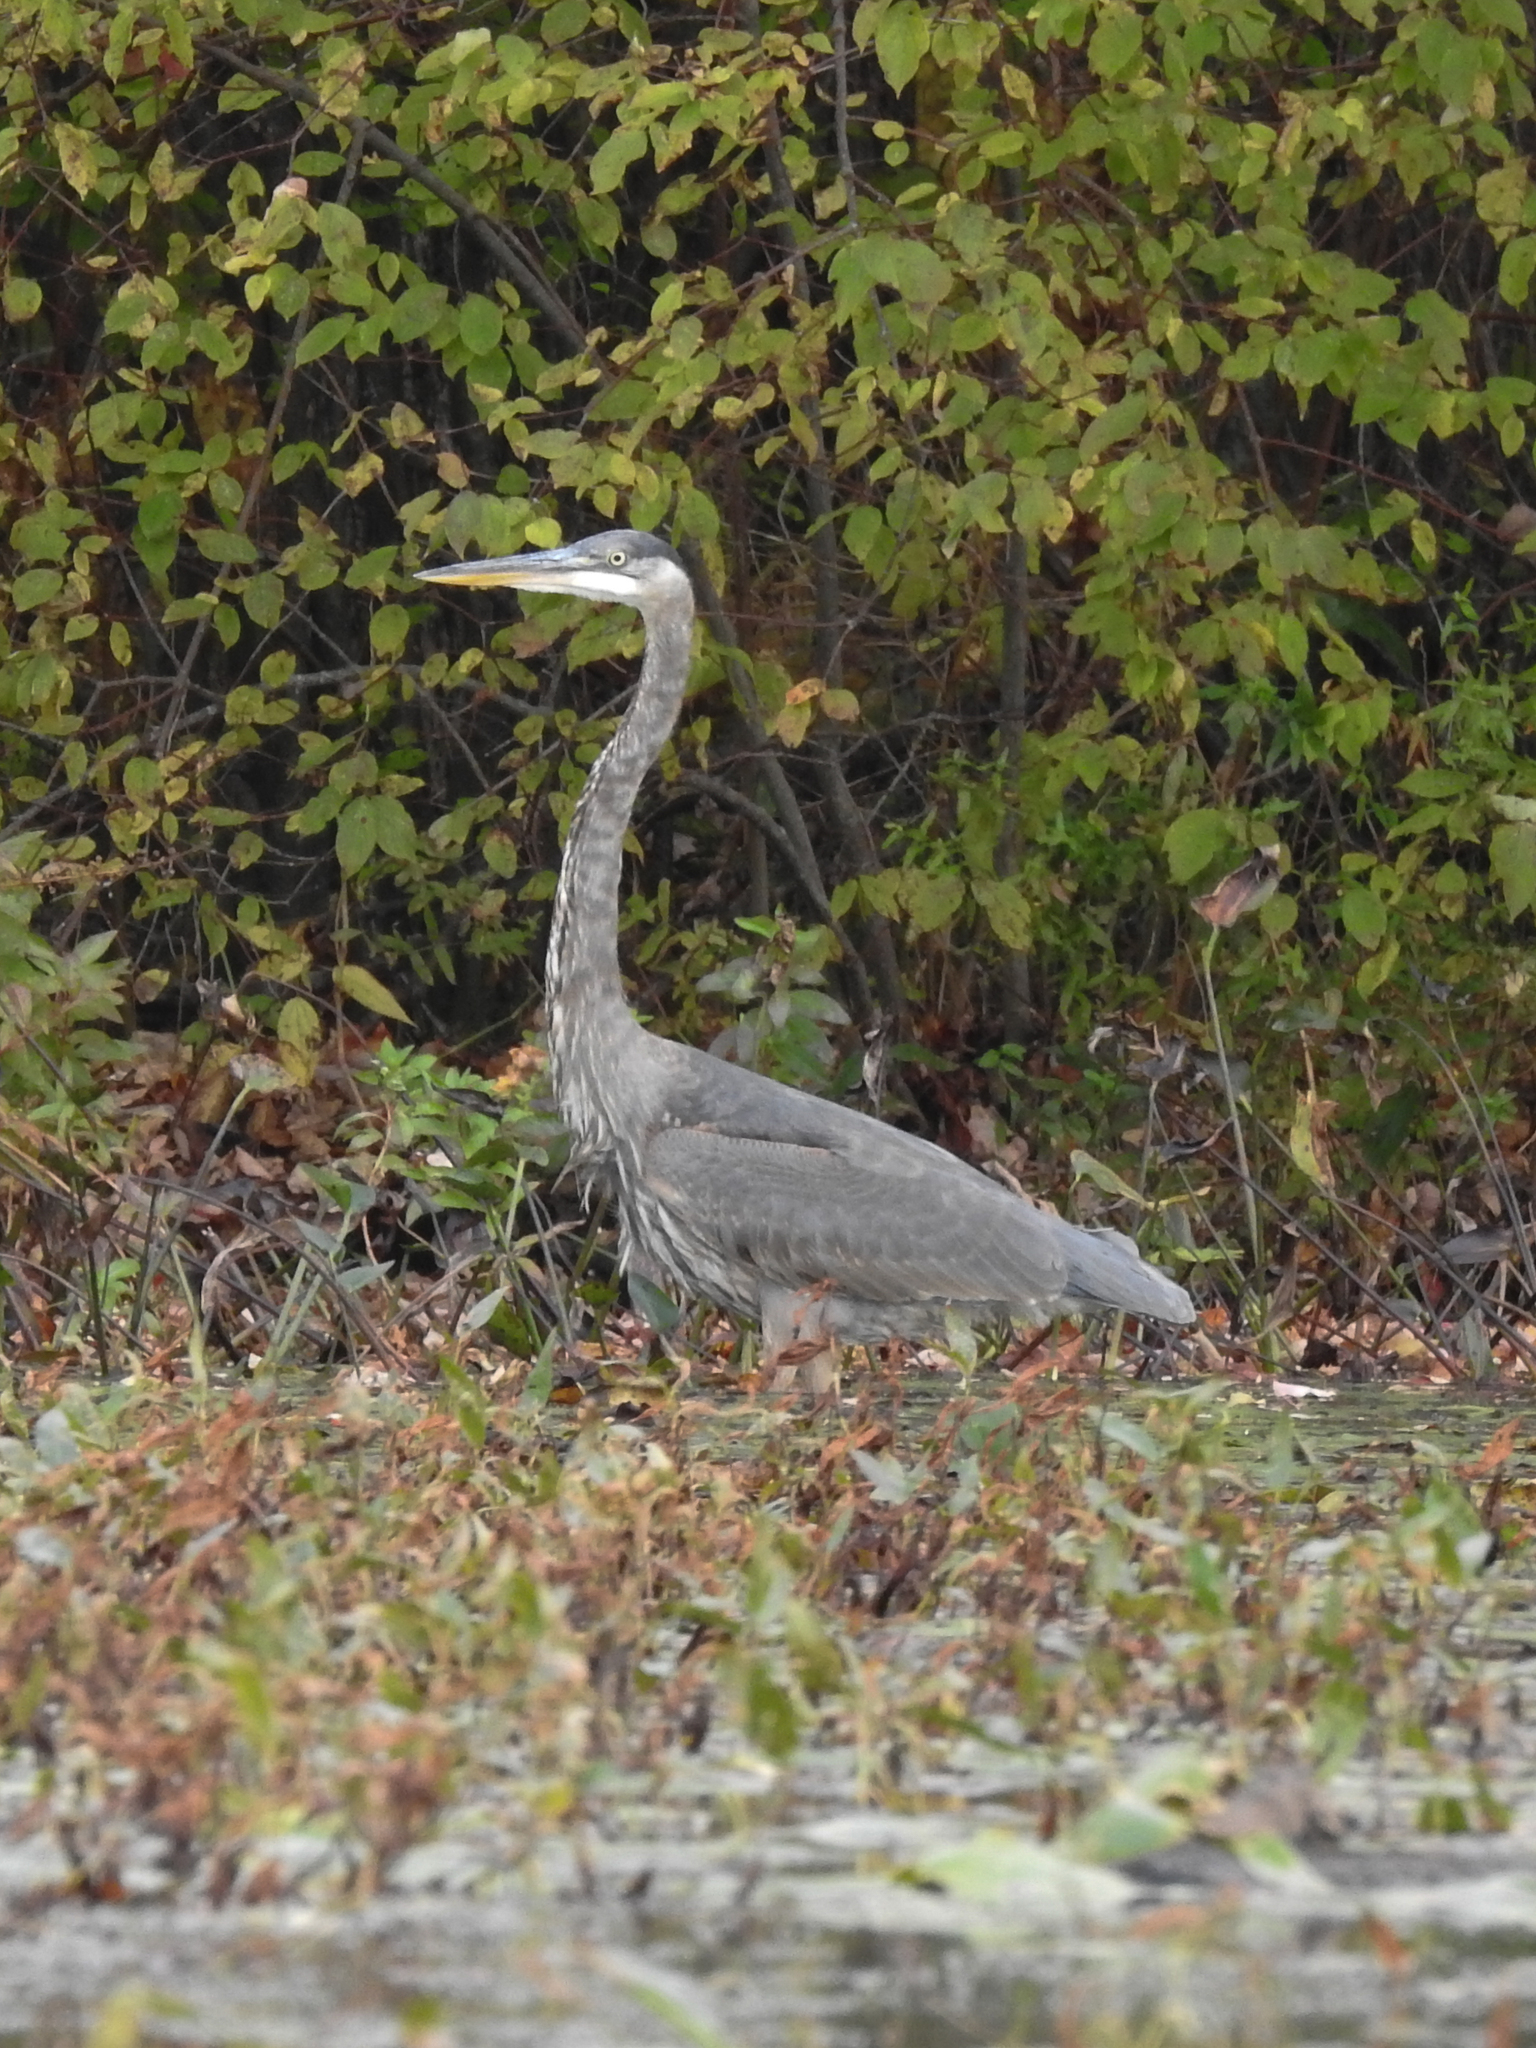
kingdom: Animalia
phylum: Chordata
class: Aves
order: Pelecaniformes
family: Ardeidae
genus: Ardea
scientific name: Ardea herodias
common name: Great blue heron
